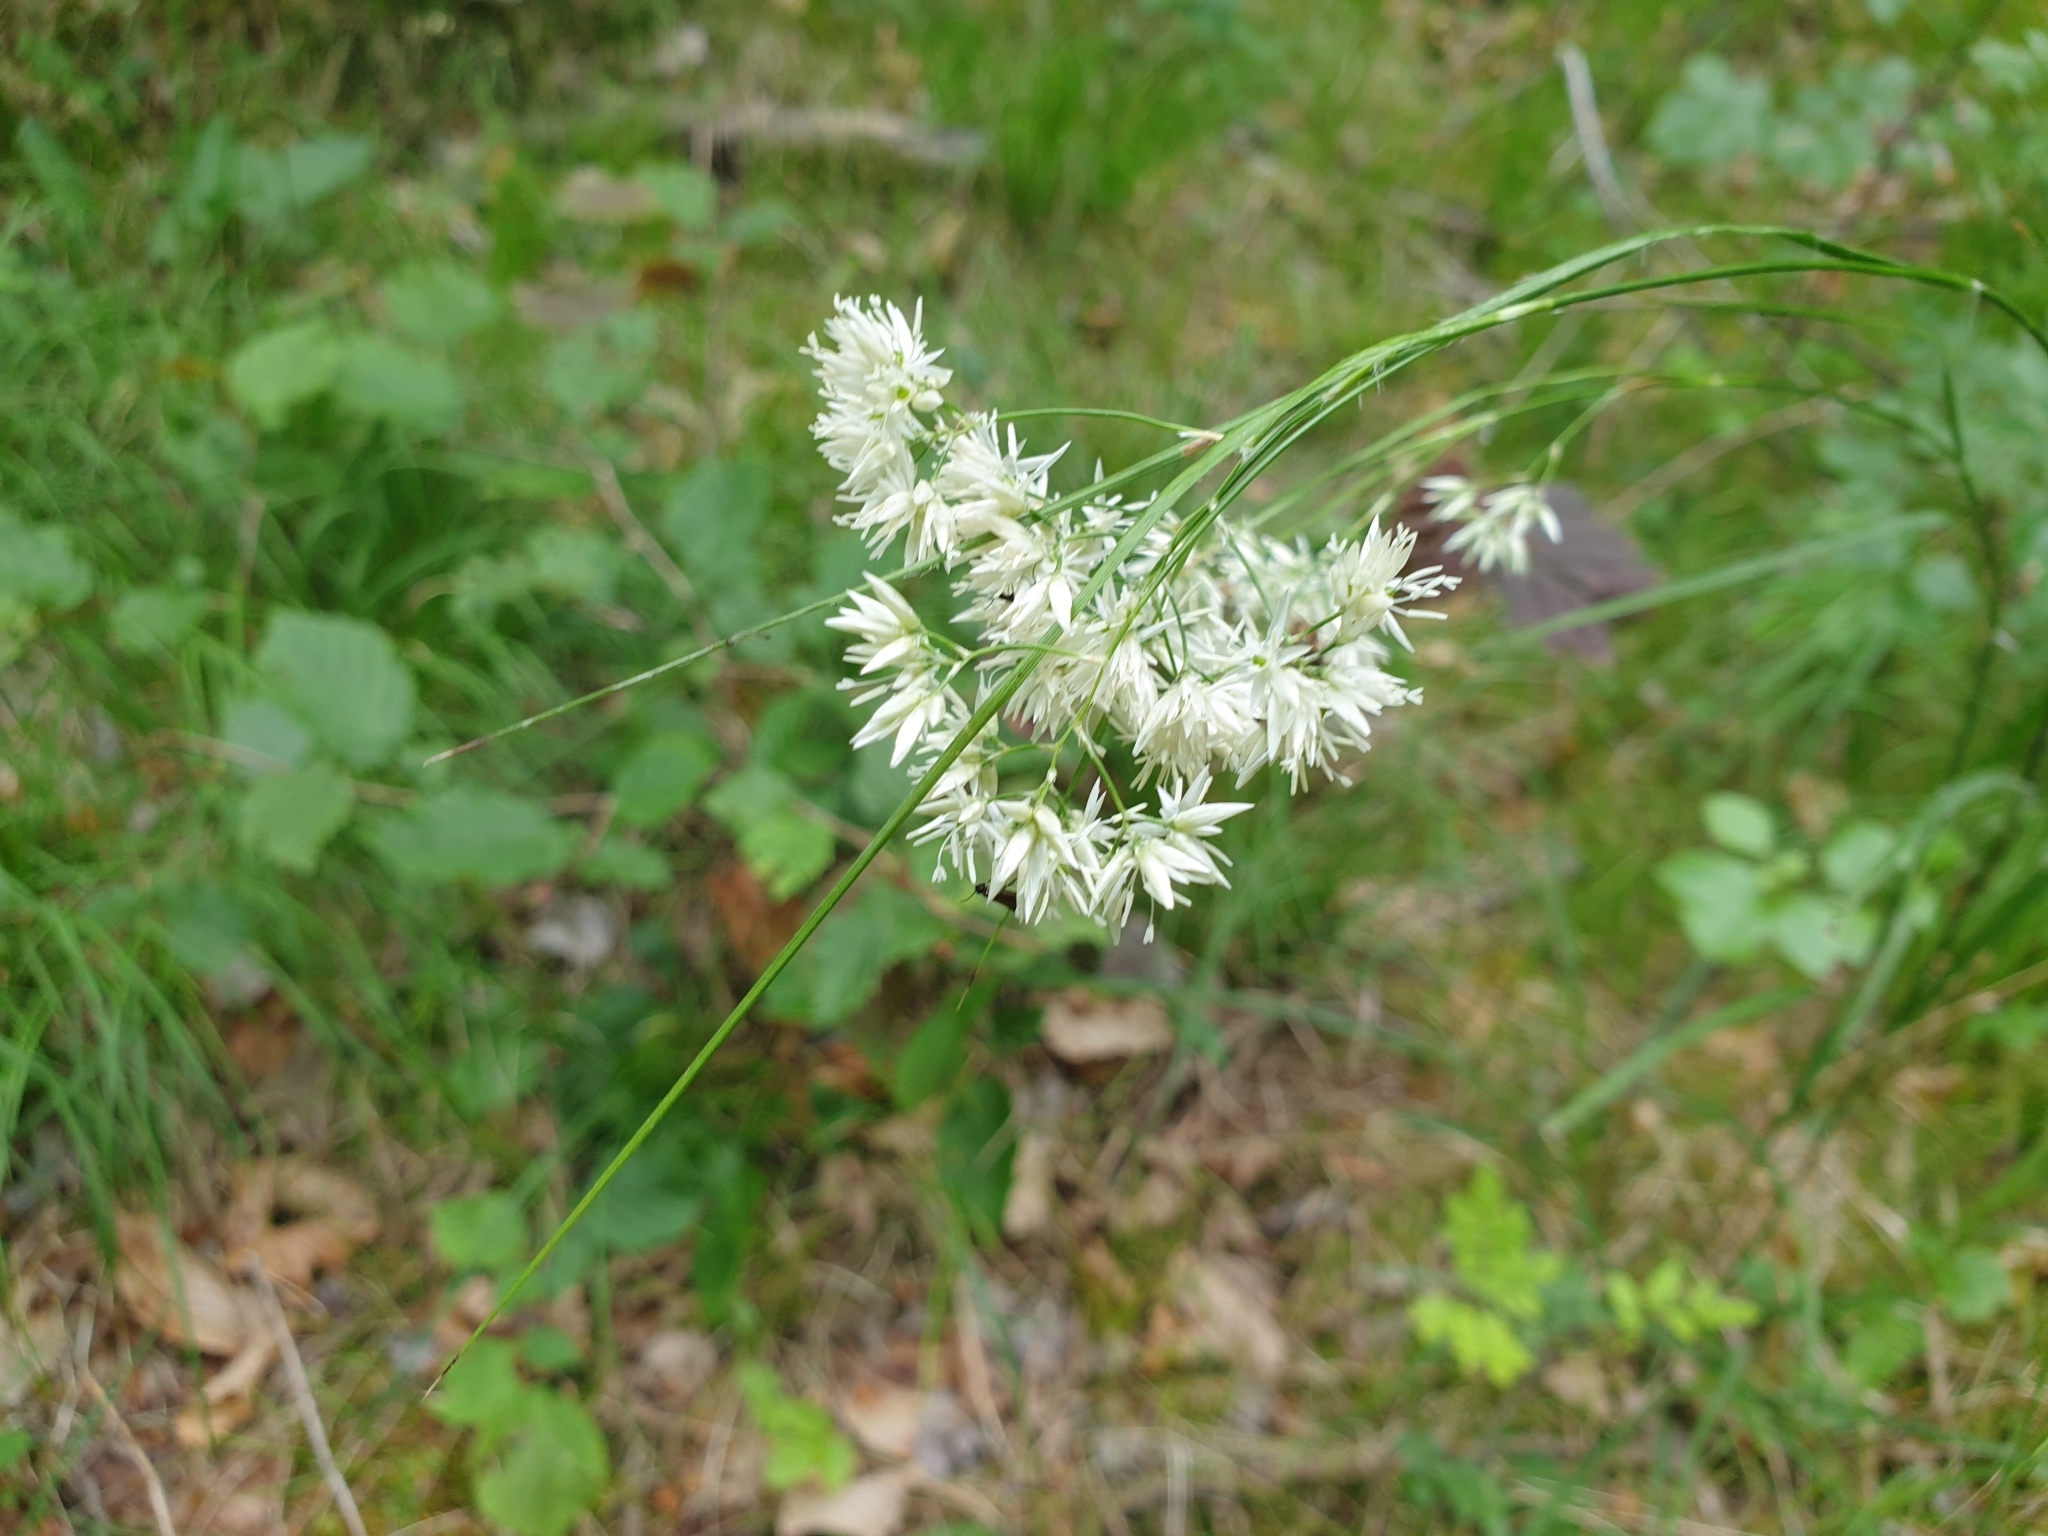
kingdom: Plantae
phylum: Tracheophyta
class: Liliopsida
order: Poales
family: Juncaceae
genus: Luzula
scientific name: Luzula nivea
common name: Snow-white wood-rush
